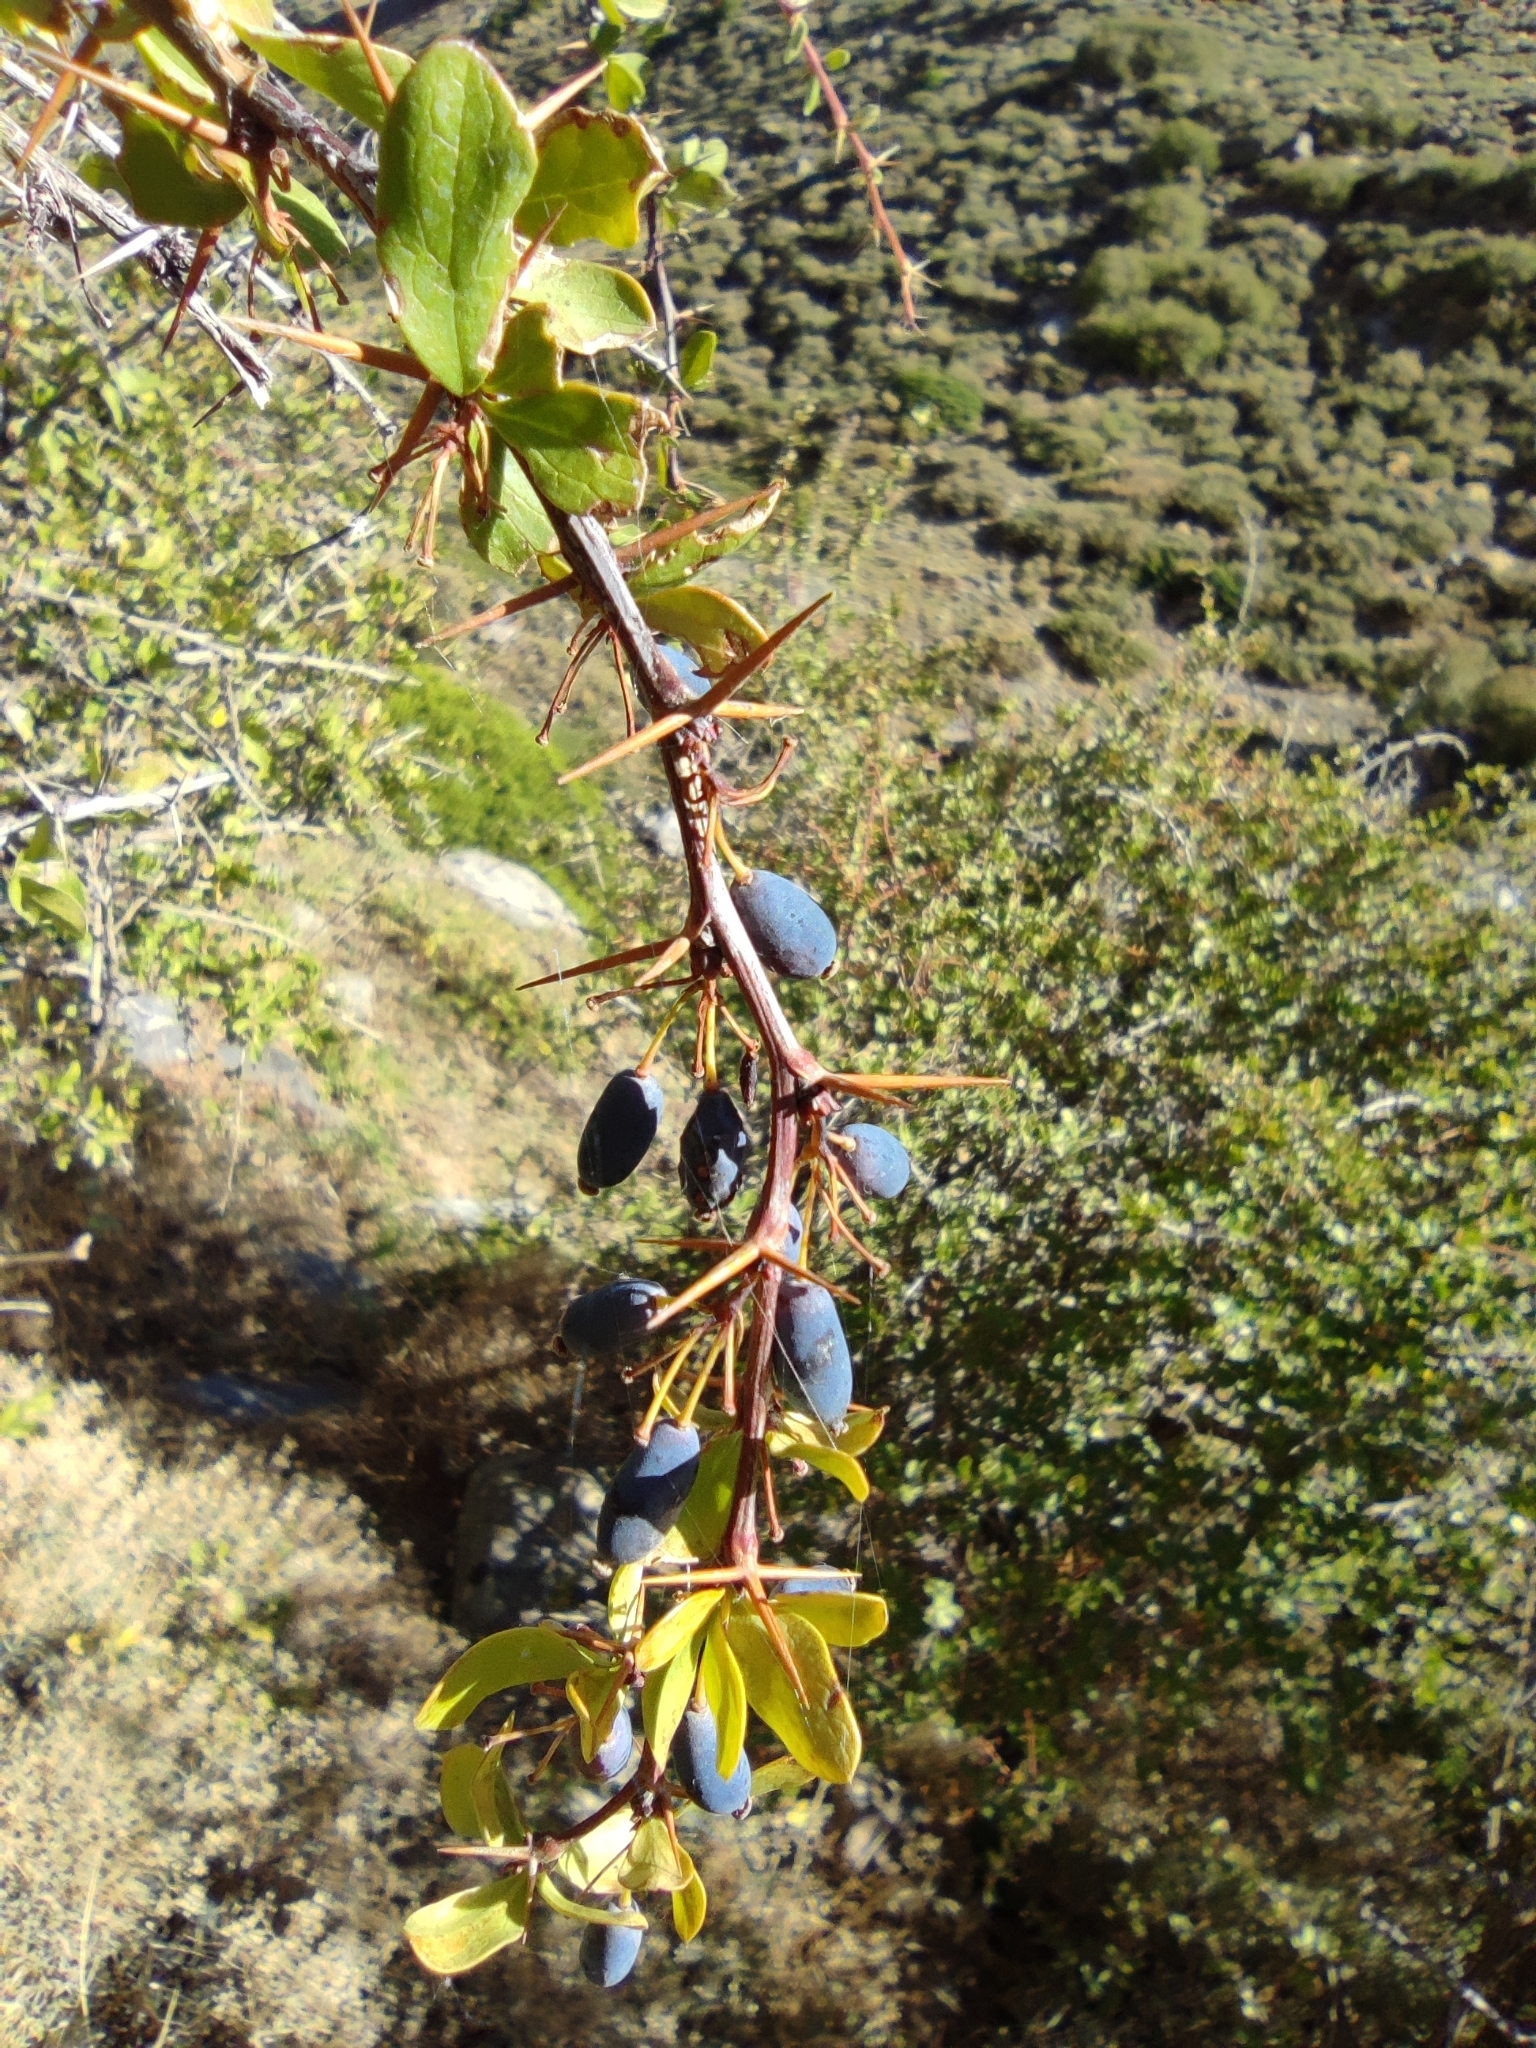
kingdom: Plantae
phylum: Tracheophyta
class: Magnoliopsida
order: Ranunculales
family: Berberidaceae
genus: Berberis
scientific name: Berberis hispanica
